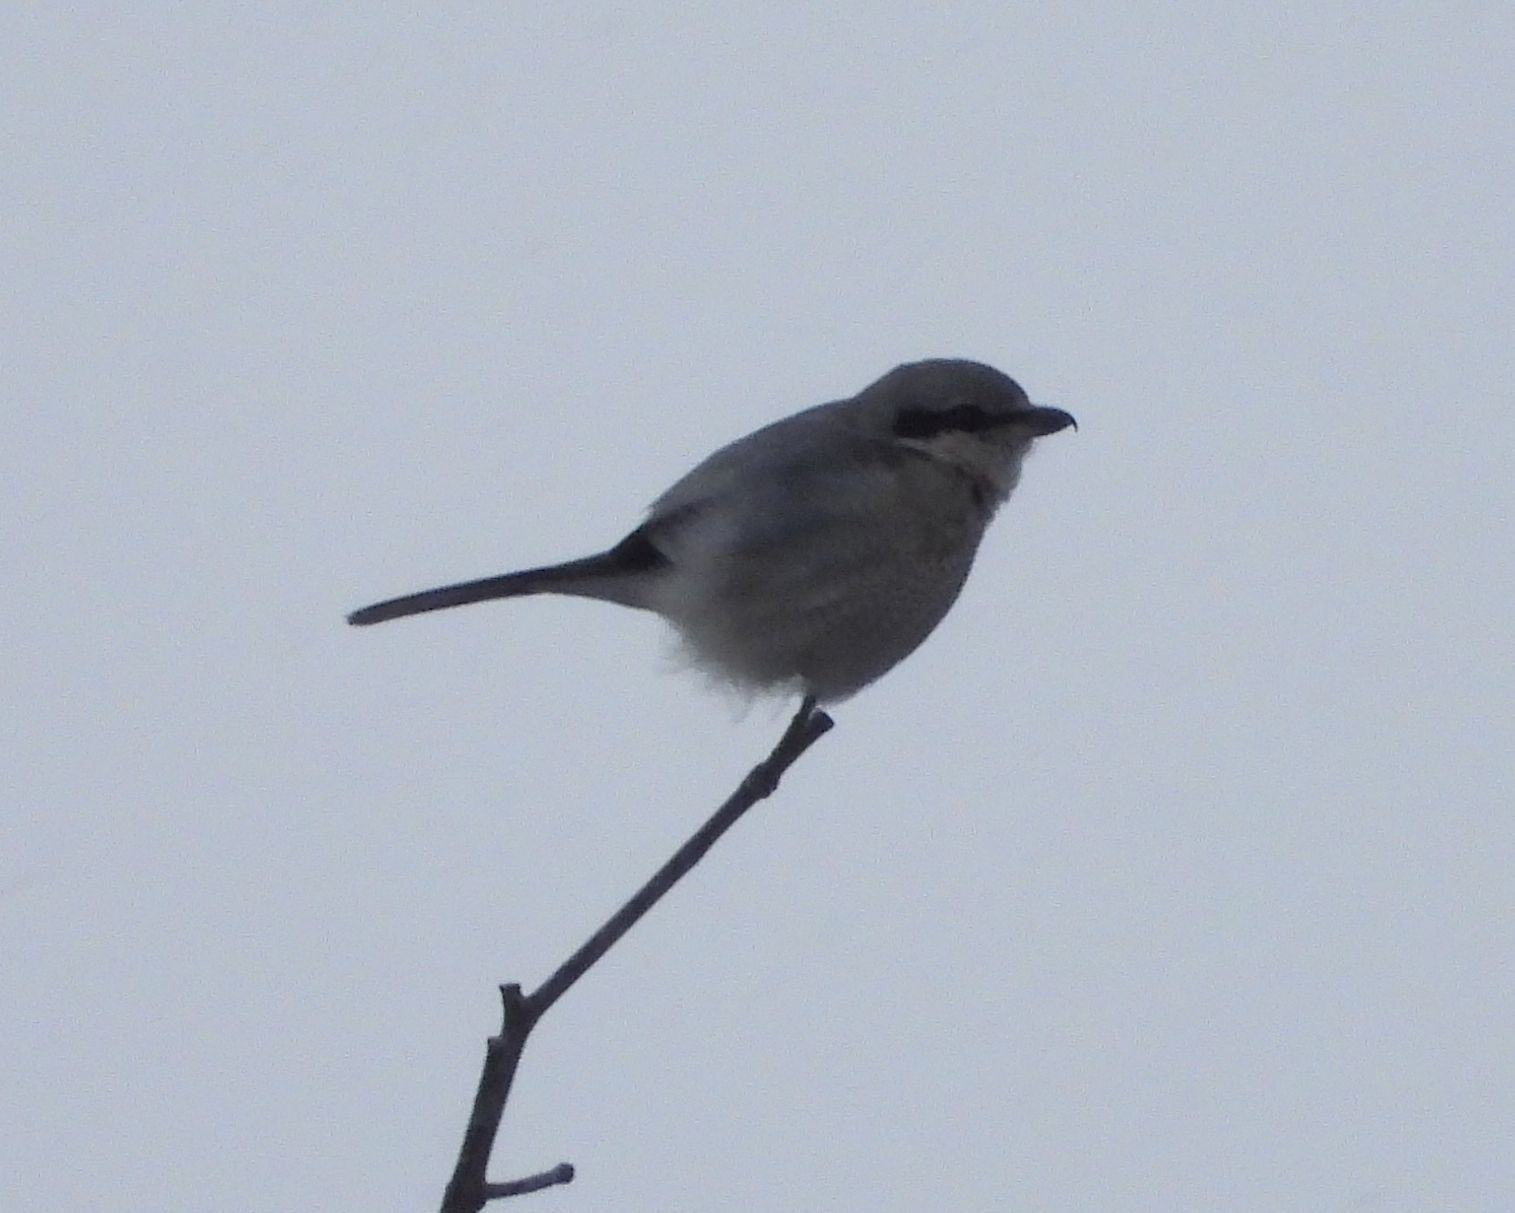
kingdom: Animalia
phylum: Chordata
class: Aves
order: Passeriformes
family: Laniidae
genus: Lanius
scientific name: Lanius borealis
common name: Northern shrike
